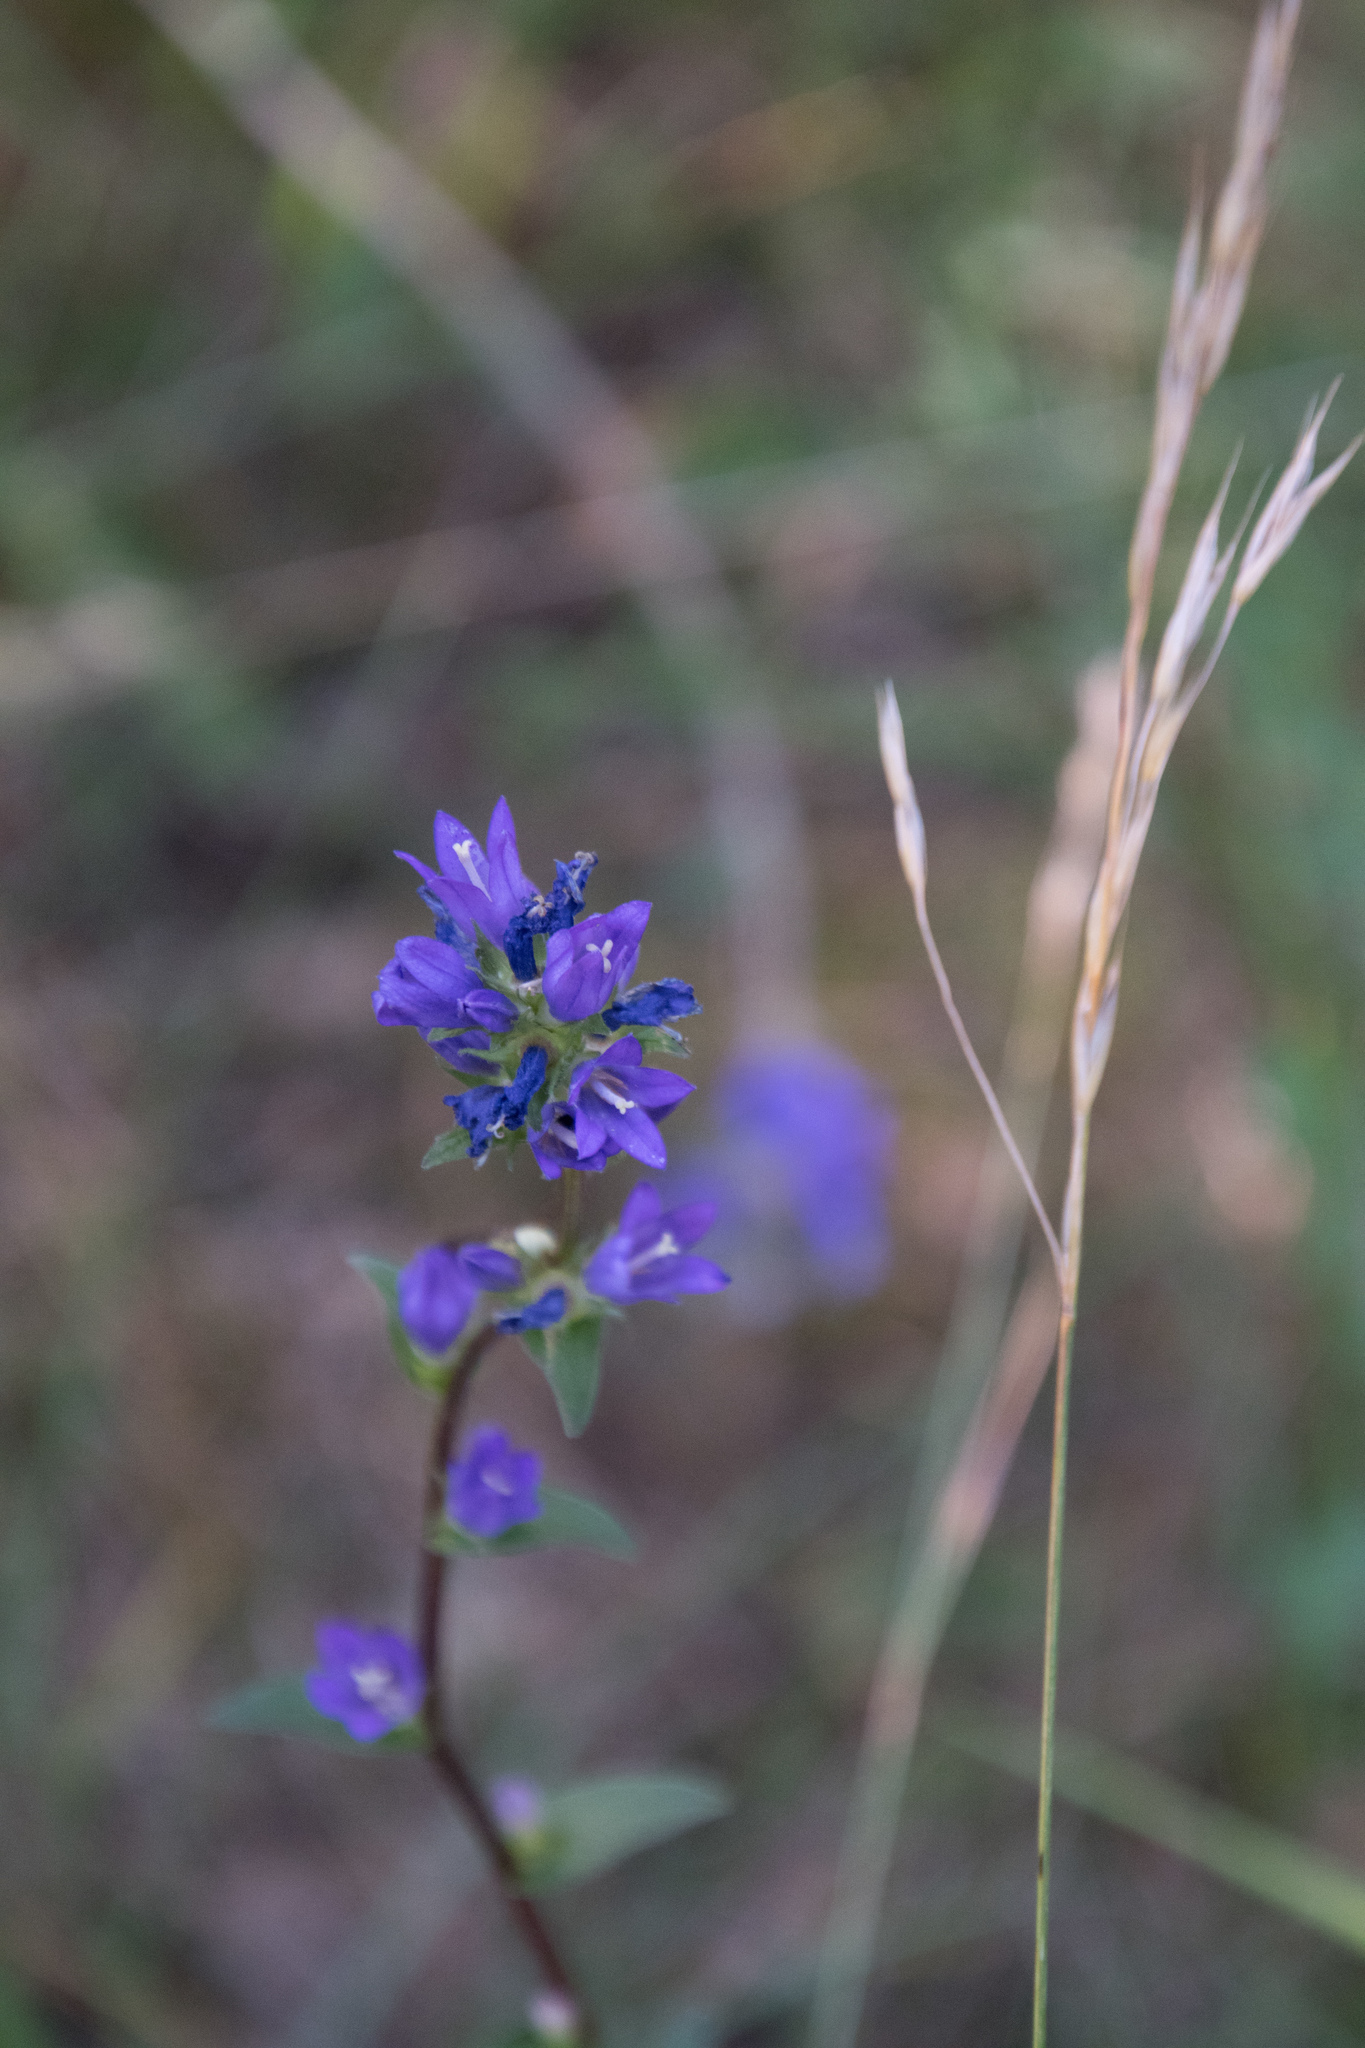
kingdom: Plantae
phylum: Tracheophyta
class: Magnoliopsida
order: Asterales
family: Campanulaceae
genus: Campanula
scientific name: Campanula glomerata
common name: Clustered bellflower
